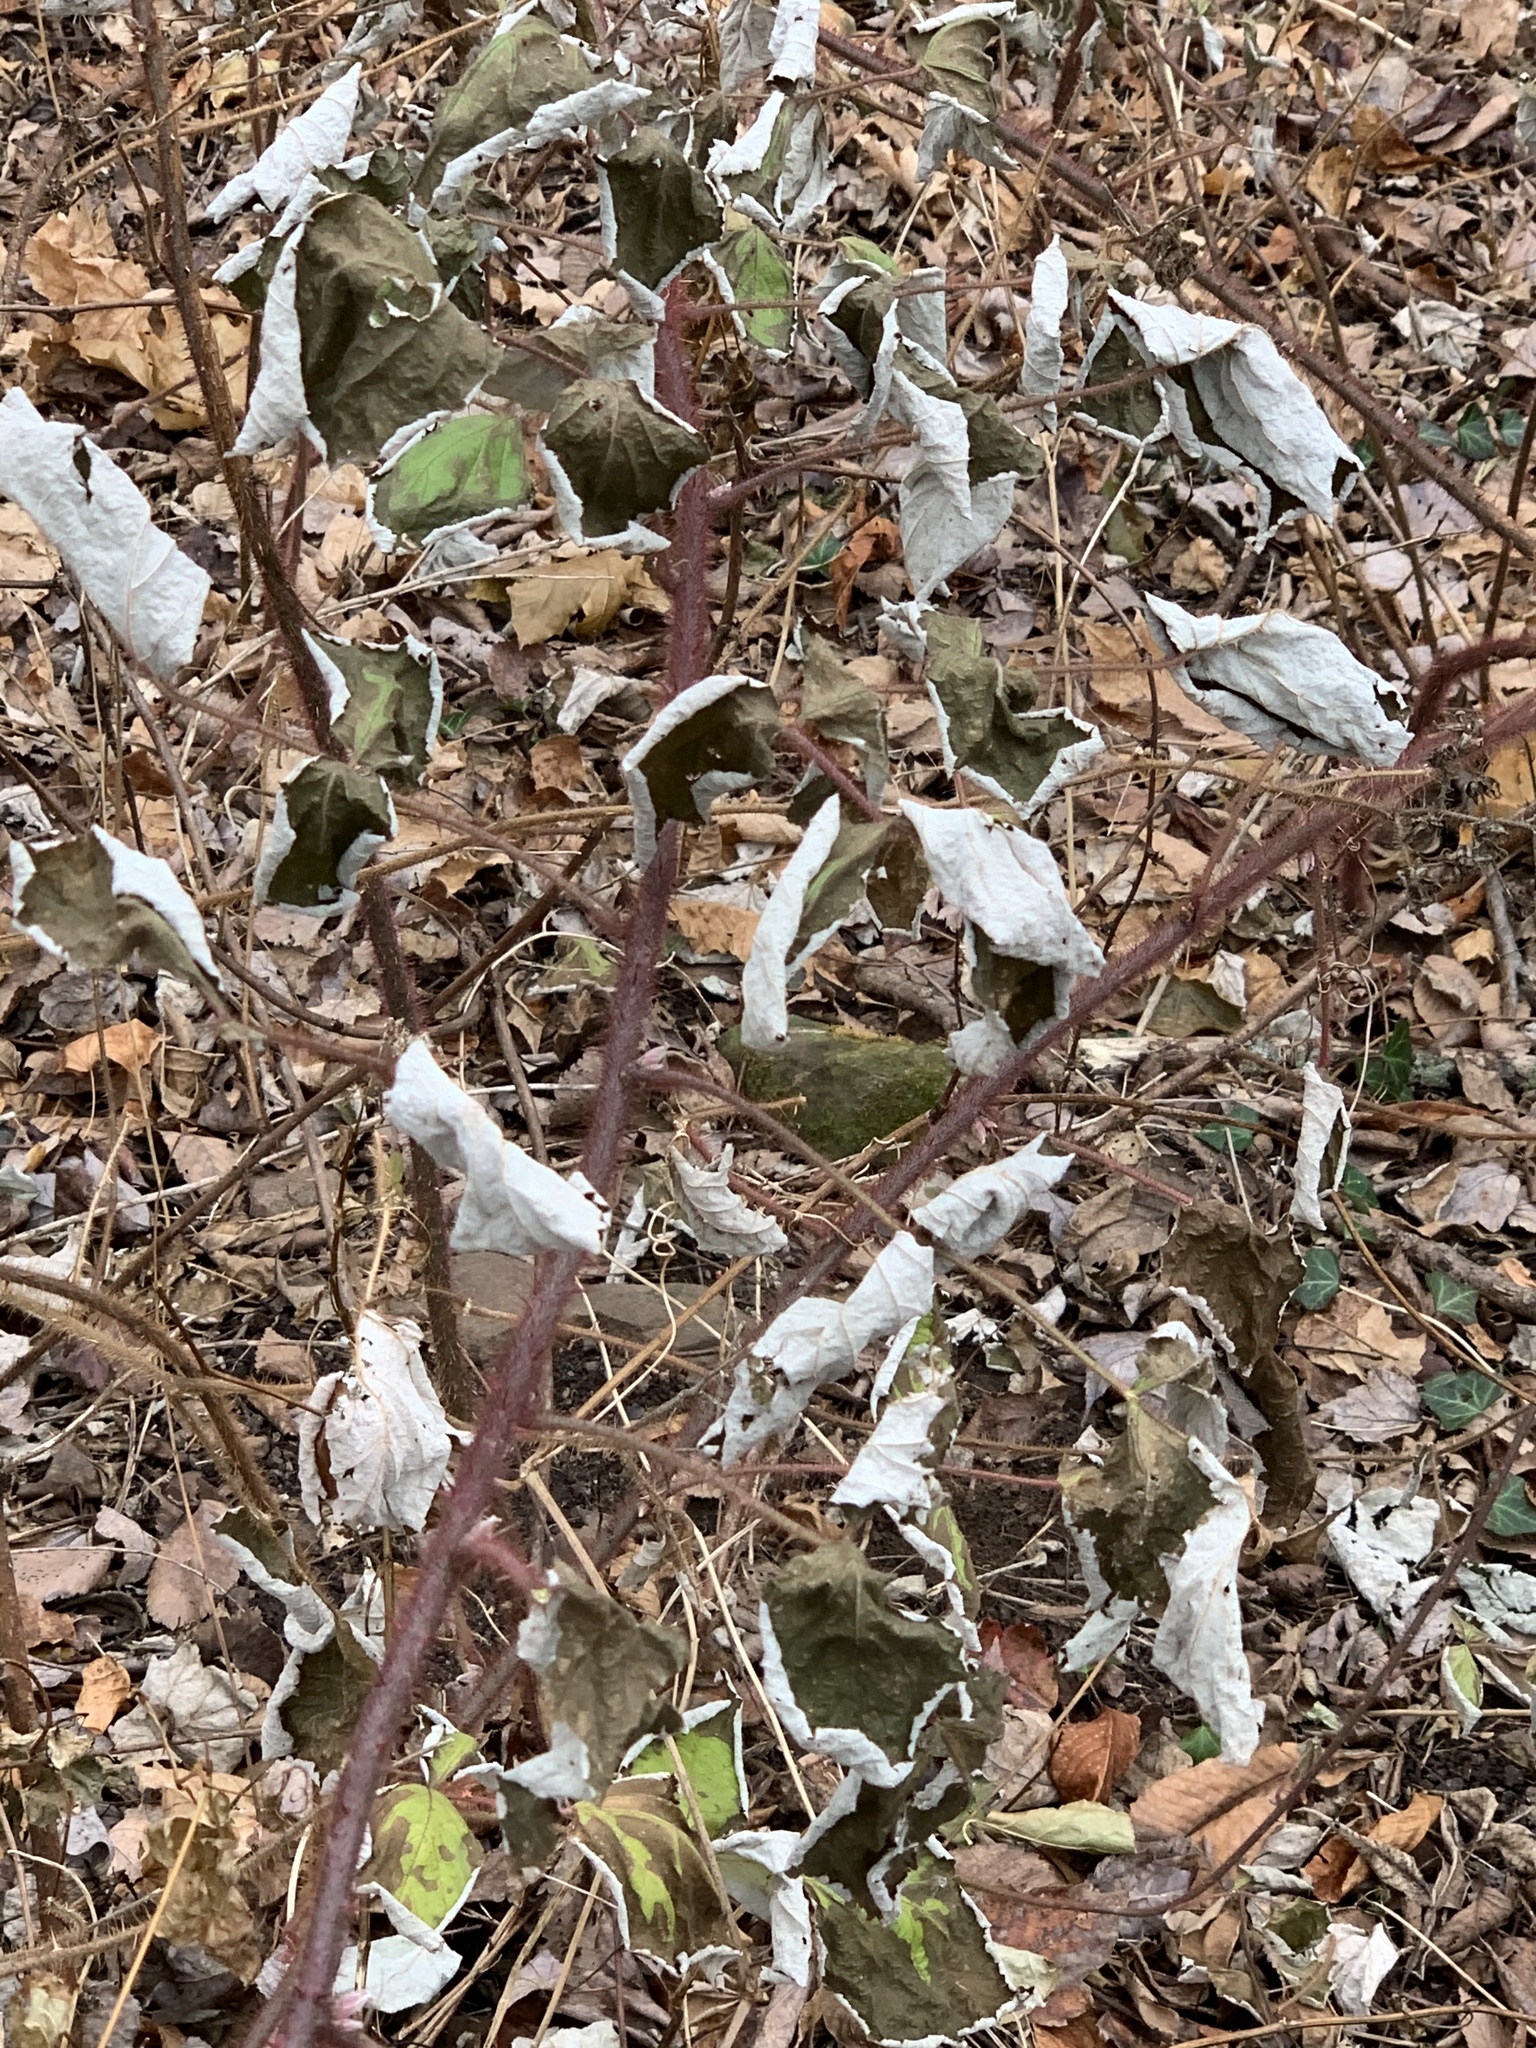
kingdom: Plantae
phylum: Tracheophyta
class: Magnoliopsida
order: Rosales
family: Rosaceae
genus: Rubus
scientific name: Rubus phoenicolasius
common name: Japanese wineberry
